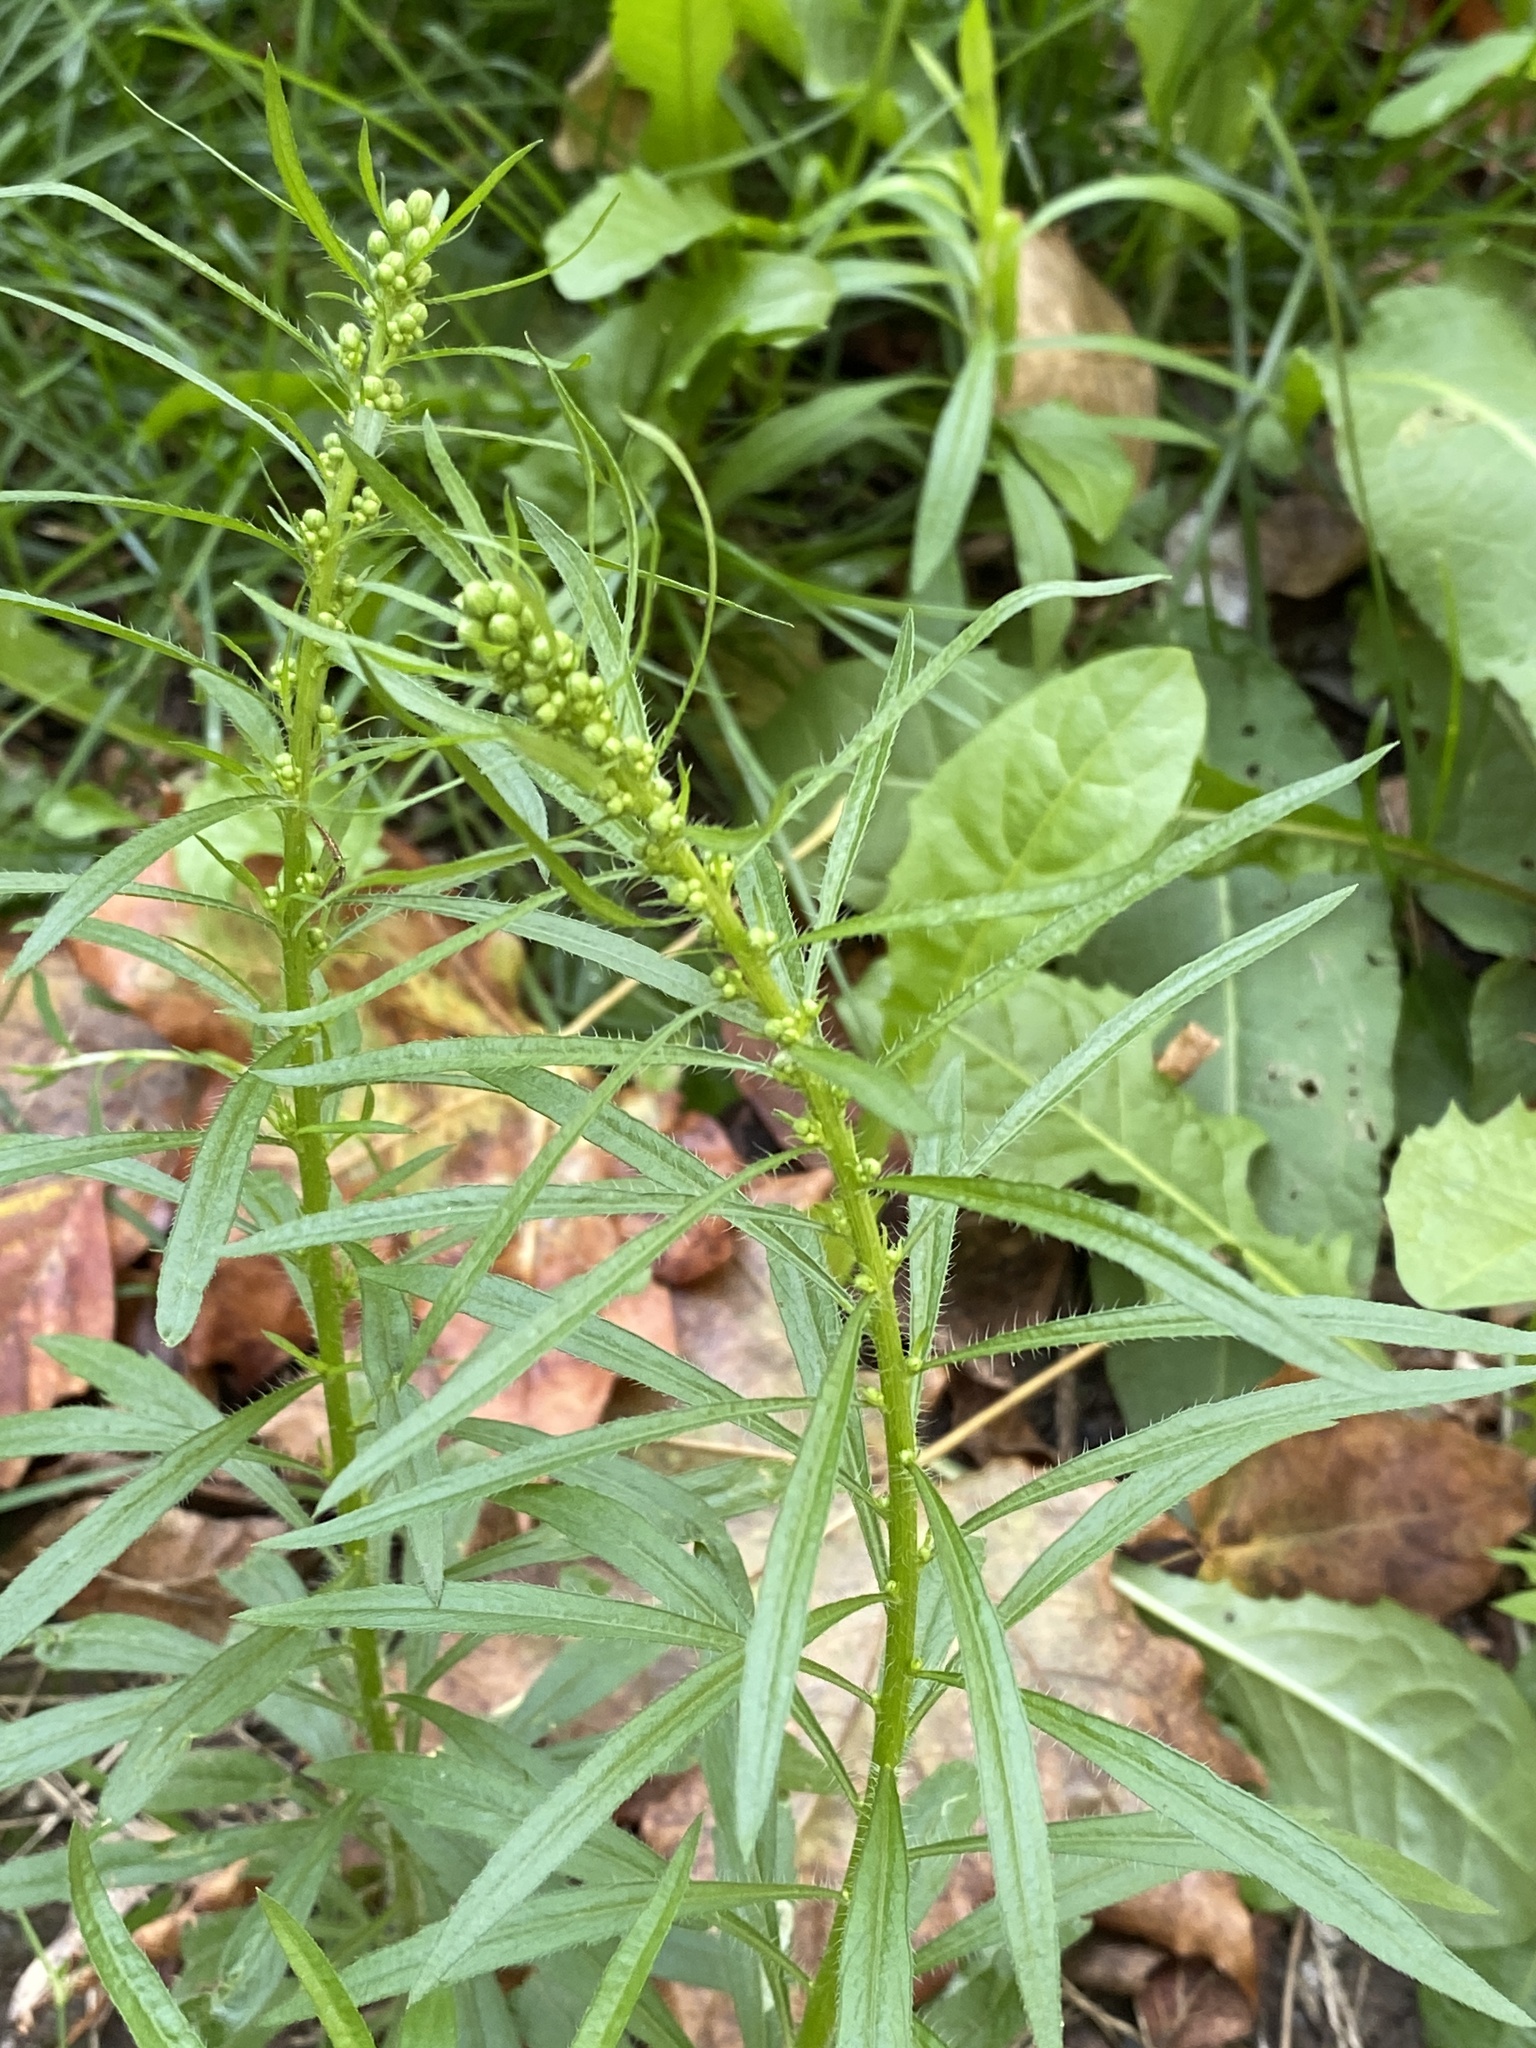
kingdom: Plantae
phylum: Tracheophyta
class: Magnoliopsida
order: Asterales
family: Asteraceae
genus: Erigeron
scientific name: Erigeron canadensis
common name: Canadian fleabane
